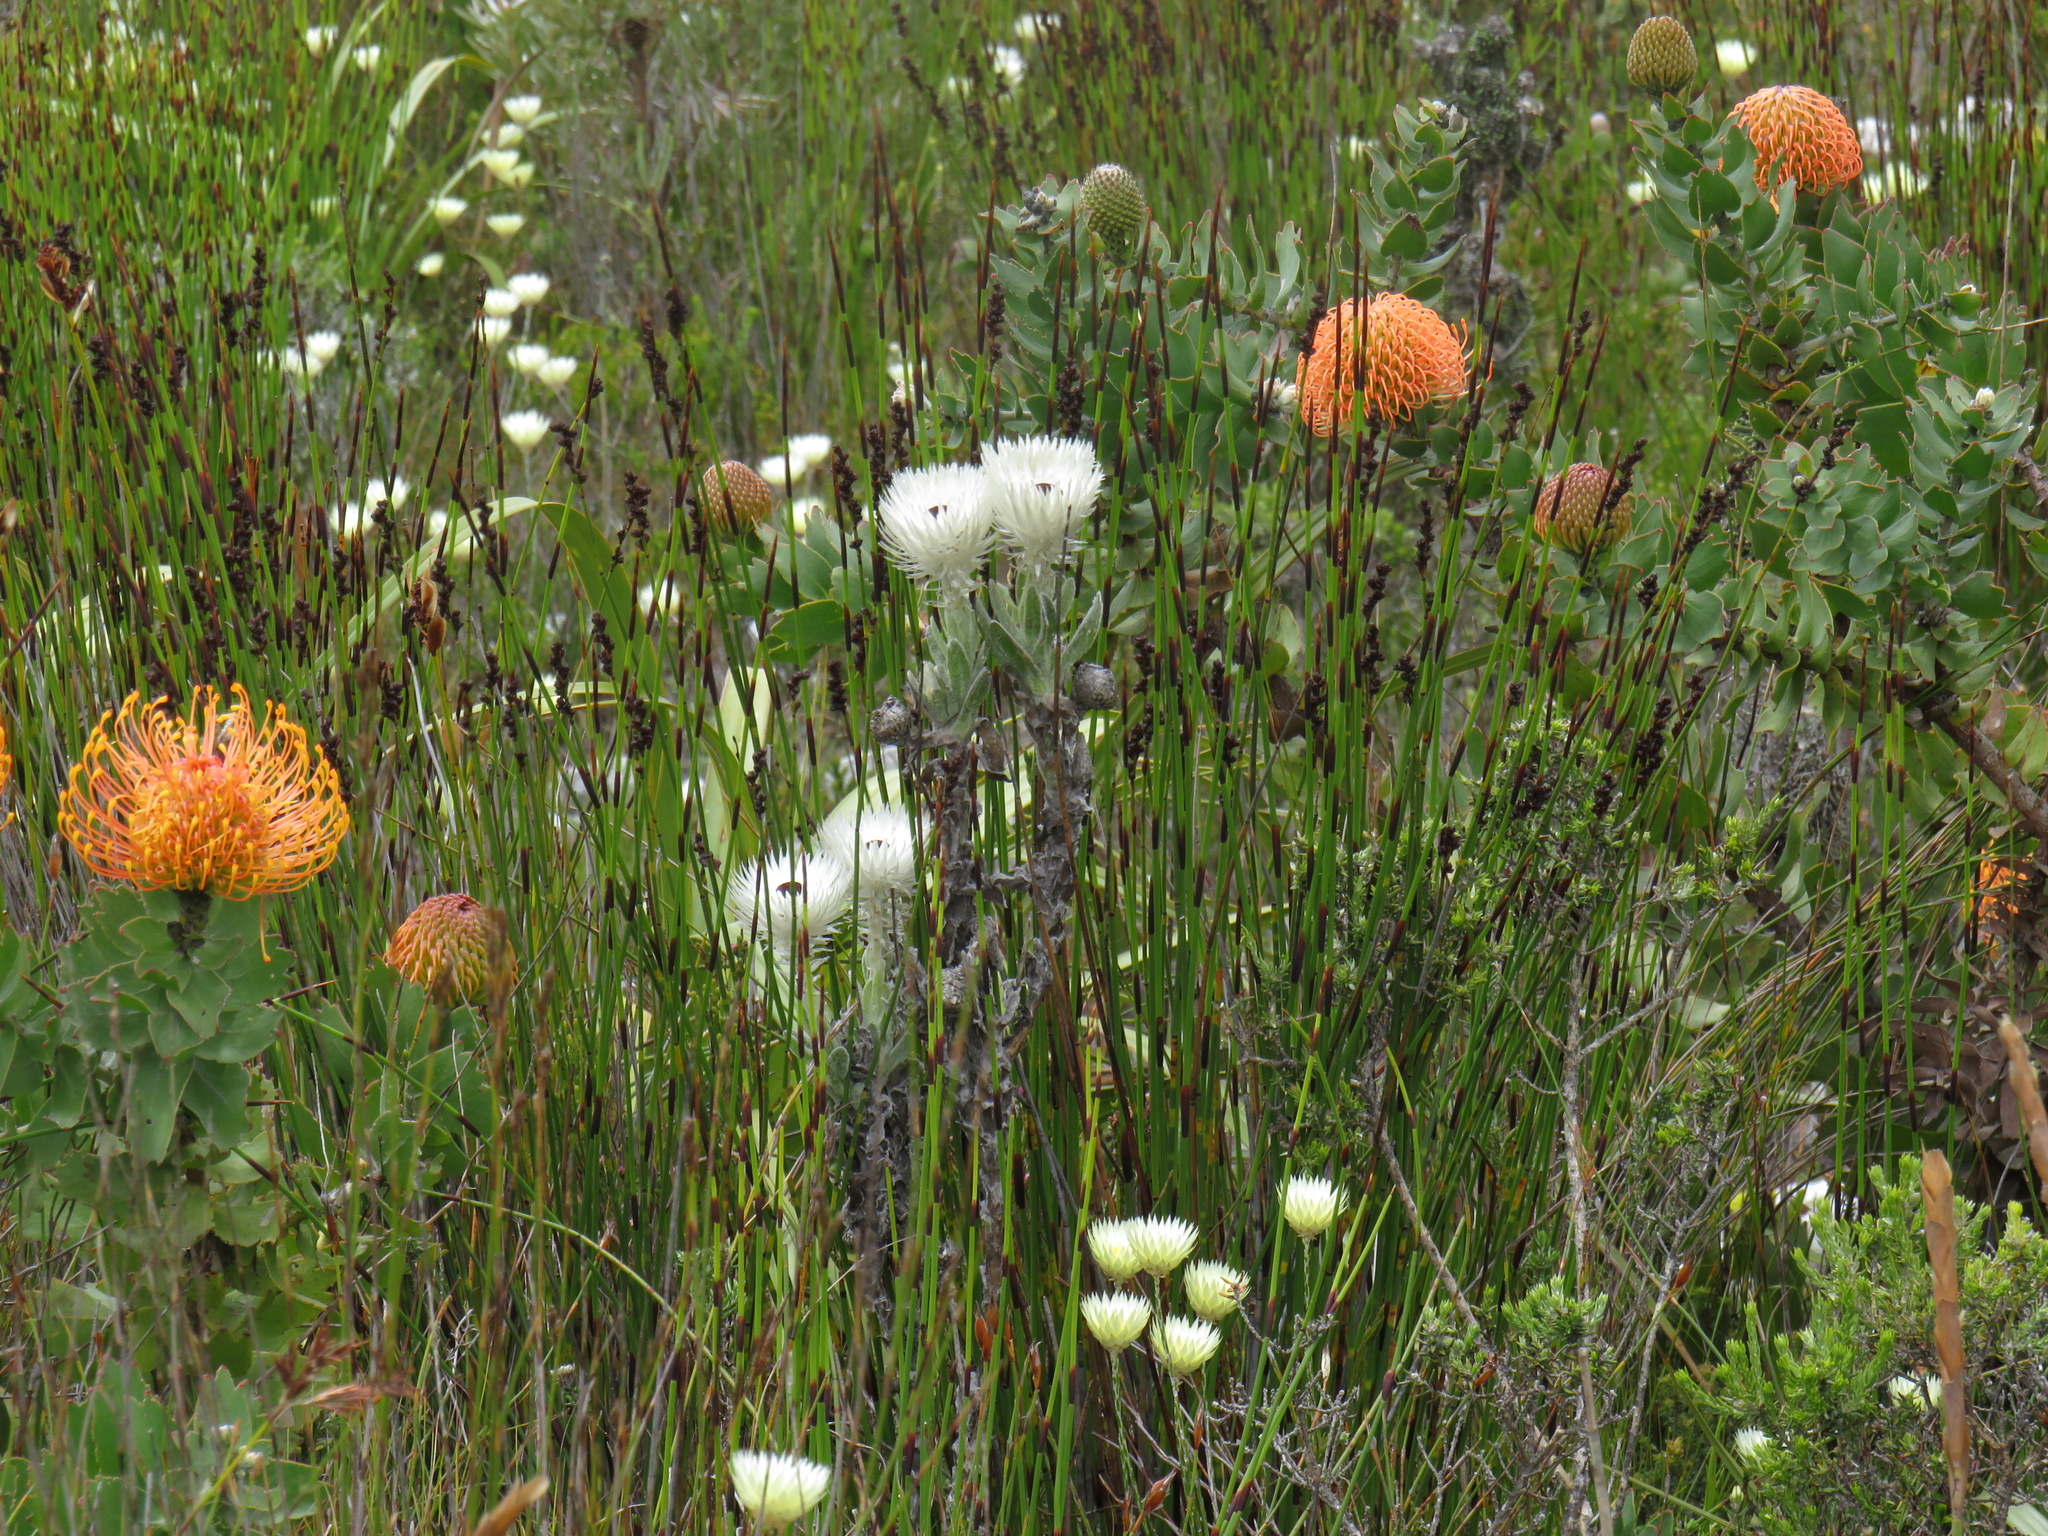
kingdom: Plantae
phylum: Tracheophyta
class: Magnoliopsida
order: Asterales
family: Asteraceae
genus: Syncarpha
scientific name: Syncarpha vestita
